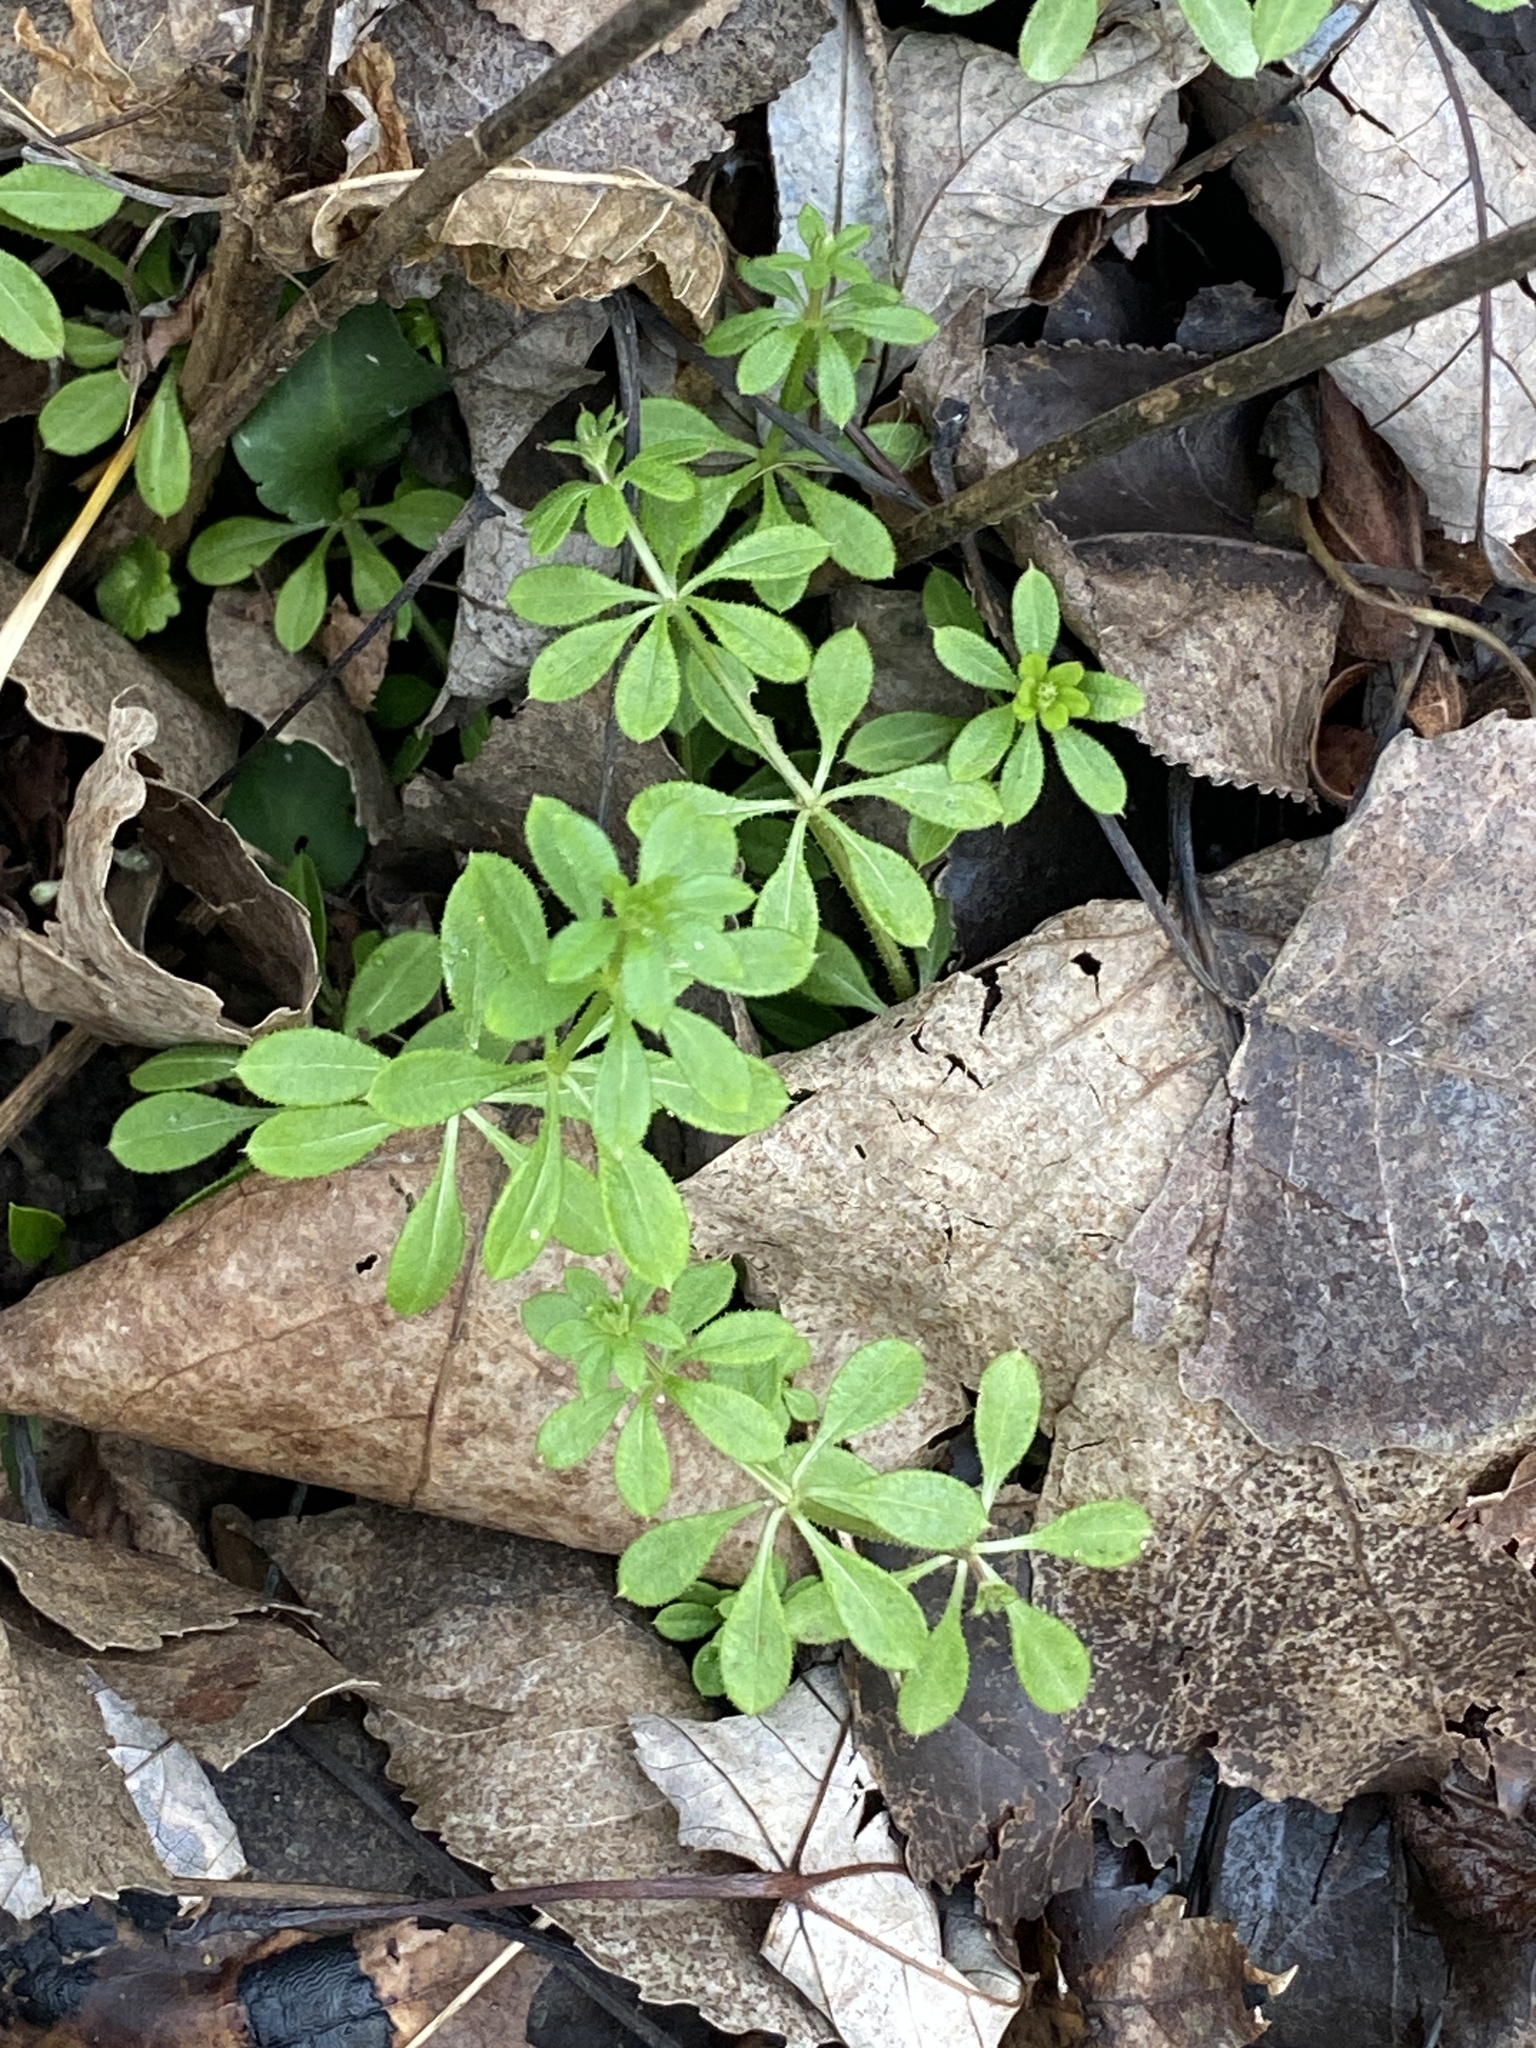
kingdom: Plantae
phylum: Tracheophyta
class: Magnoliopsida
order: Gentianales
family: Rubiaceae
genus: Galium
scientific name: Galium aparine
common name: Cleavers
